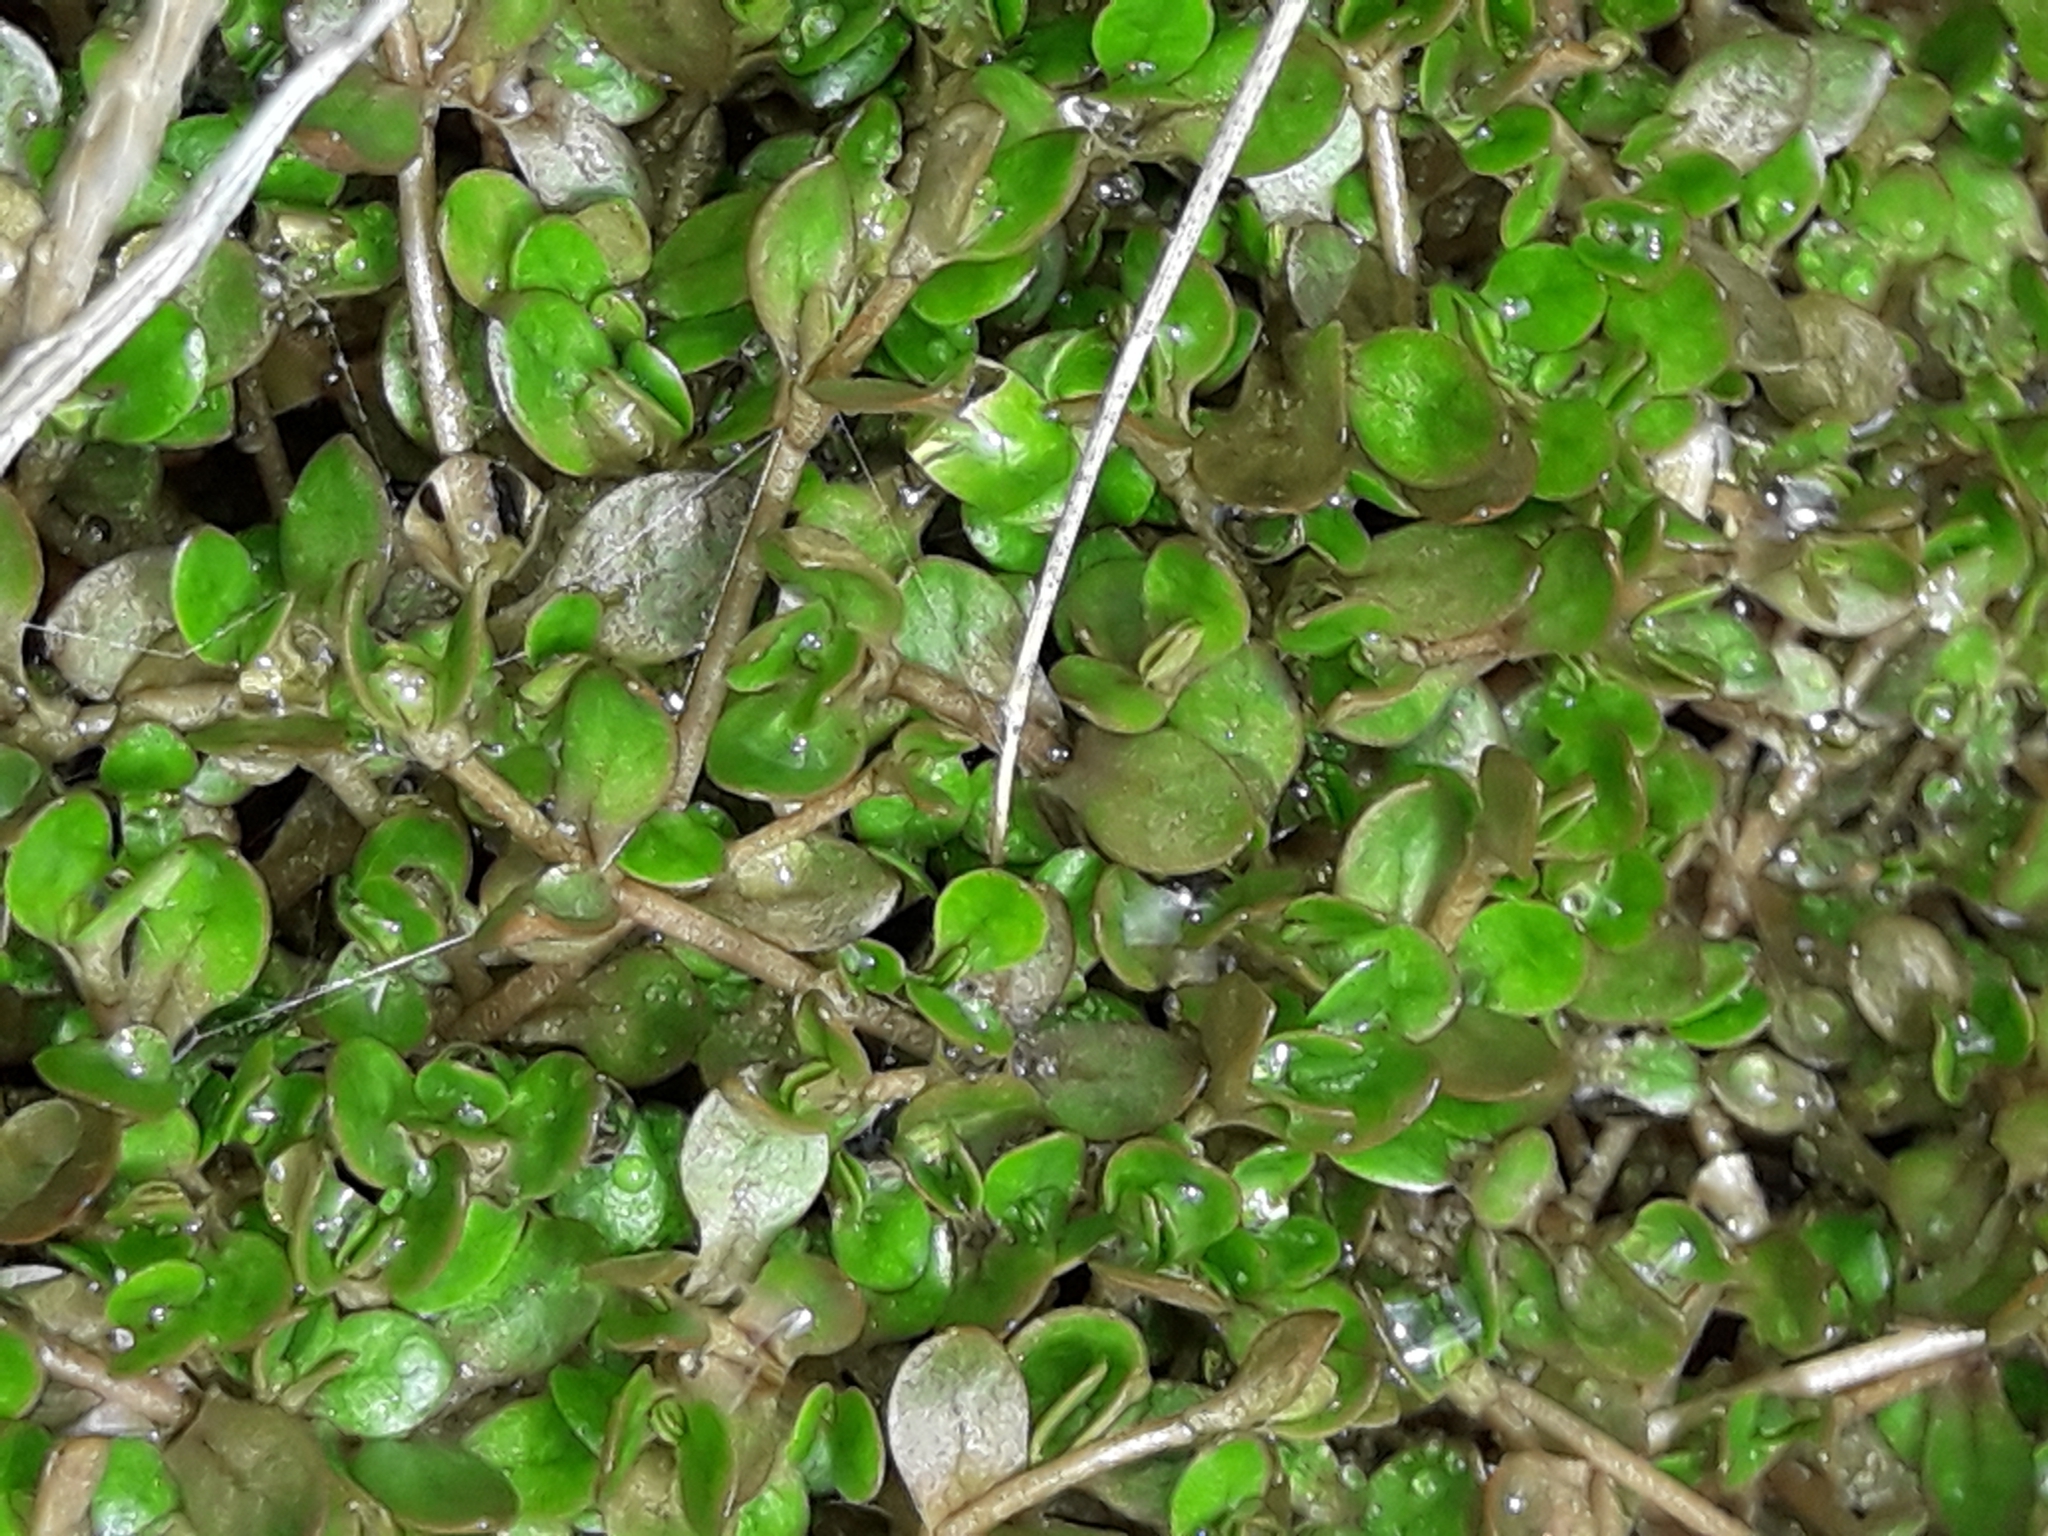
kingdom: Plantae
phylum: Tracheophyta
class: Magnoliopsida
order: Caryophyllales
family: Montiaceae
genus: Montia
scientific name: Montia fontana
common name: Blinks
